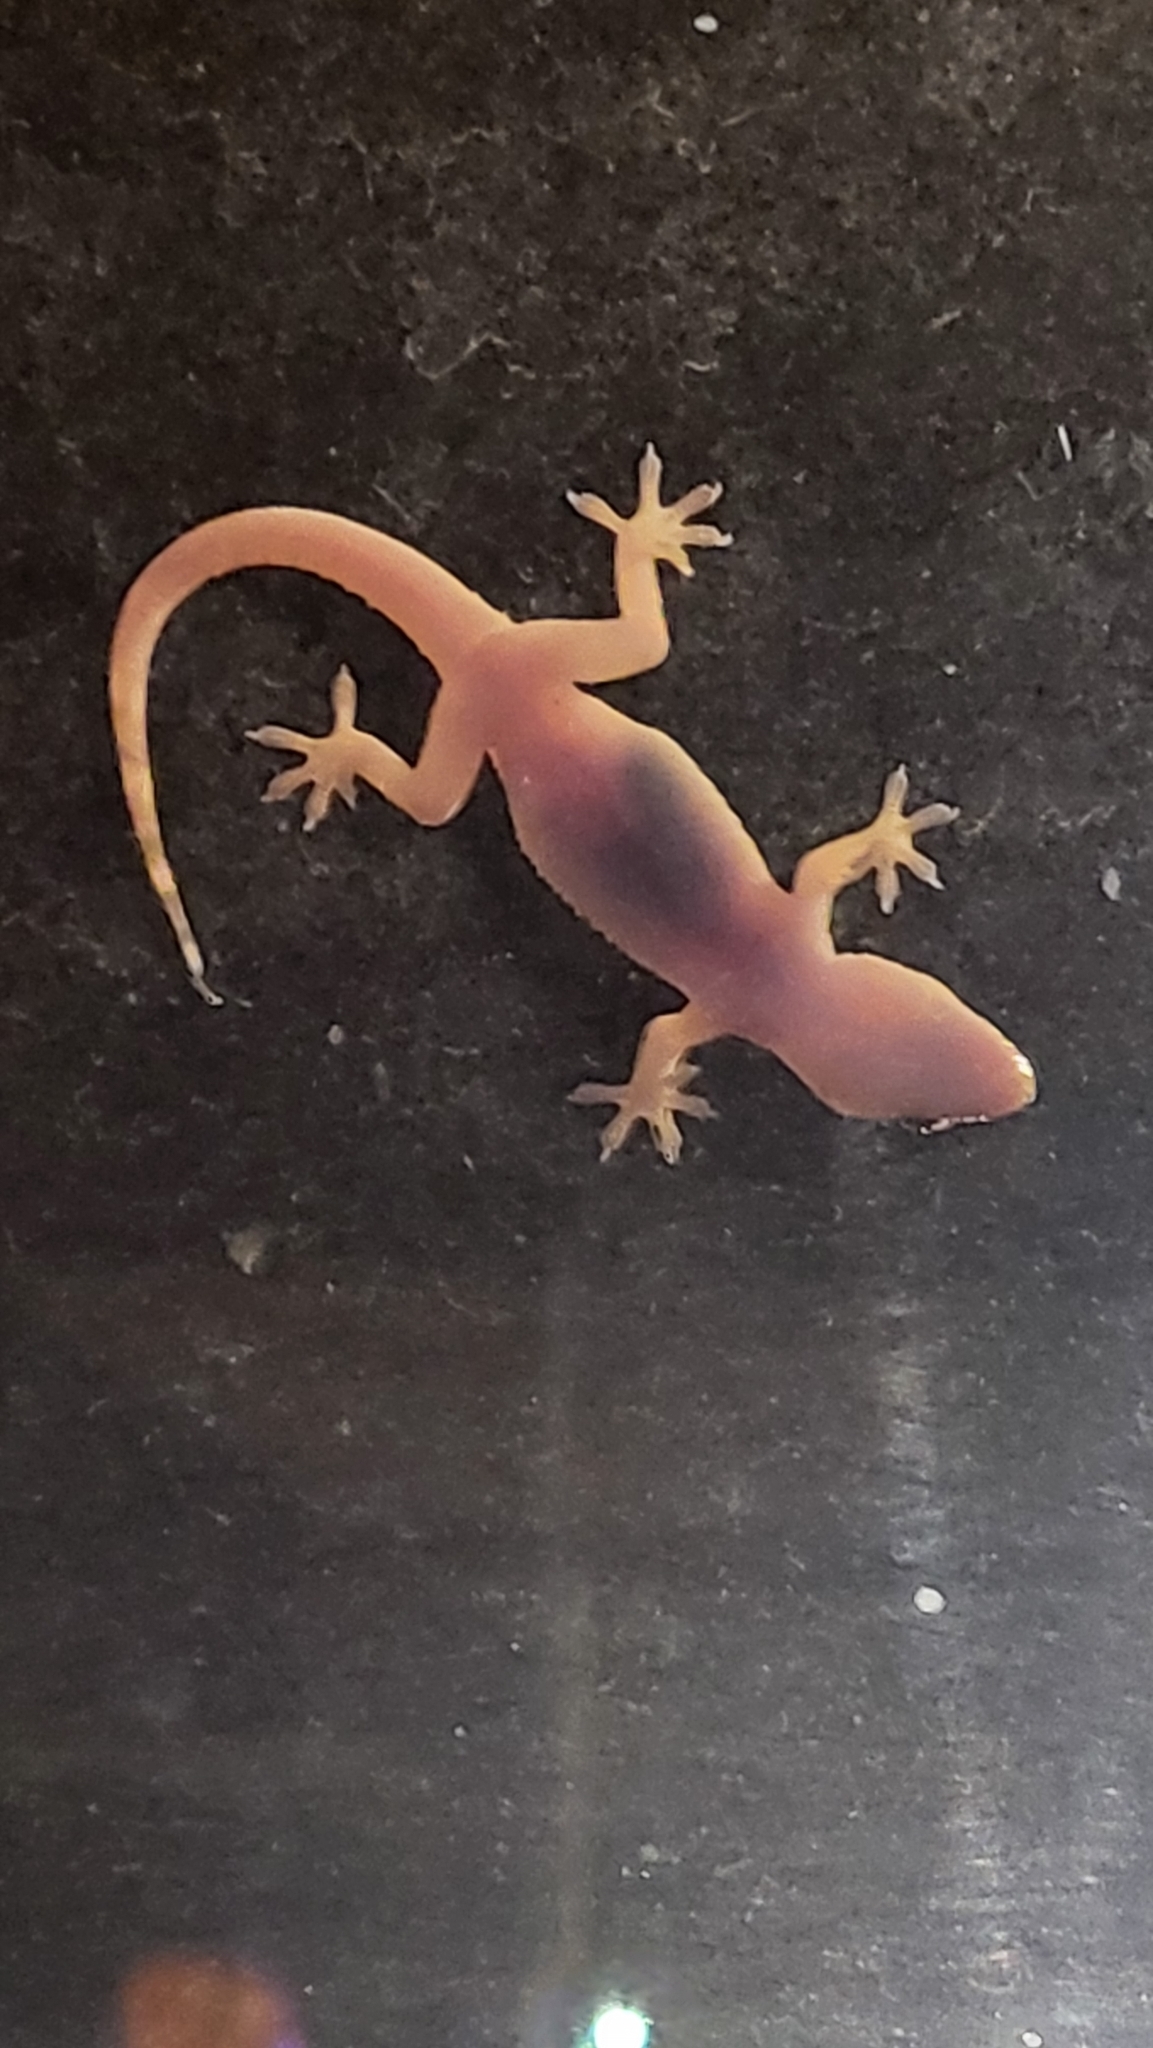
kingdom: Animalia
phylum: Chordata
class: Squamata
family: Gekkonidae
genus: Hemidactylus
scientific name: Hemidactylus turcicus
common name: Turkish gecko
